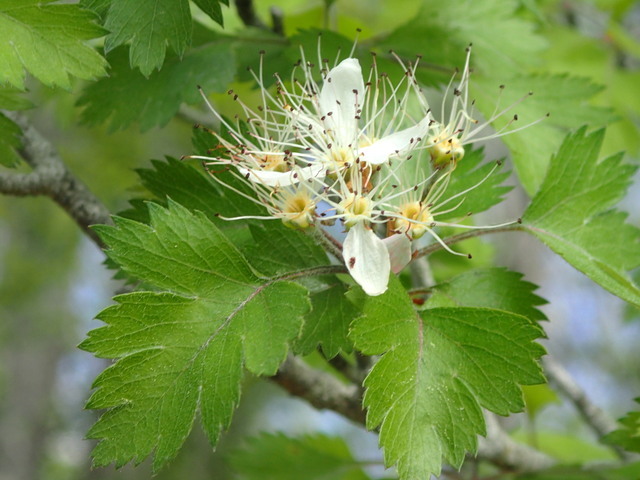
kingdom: Plantae
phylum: Tracheophyta
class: Magnoliopsida
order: Rosales
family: Rosaceae
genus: Crataegus
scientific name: Crataegus marshallii
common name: Parsley-hawthorn
